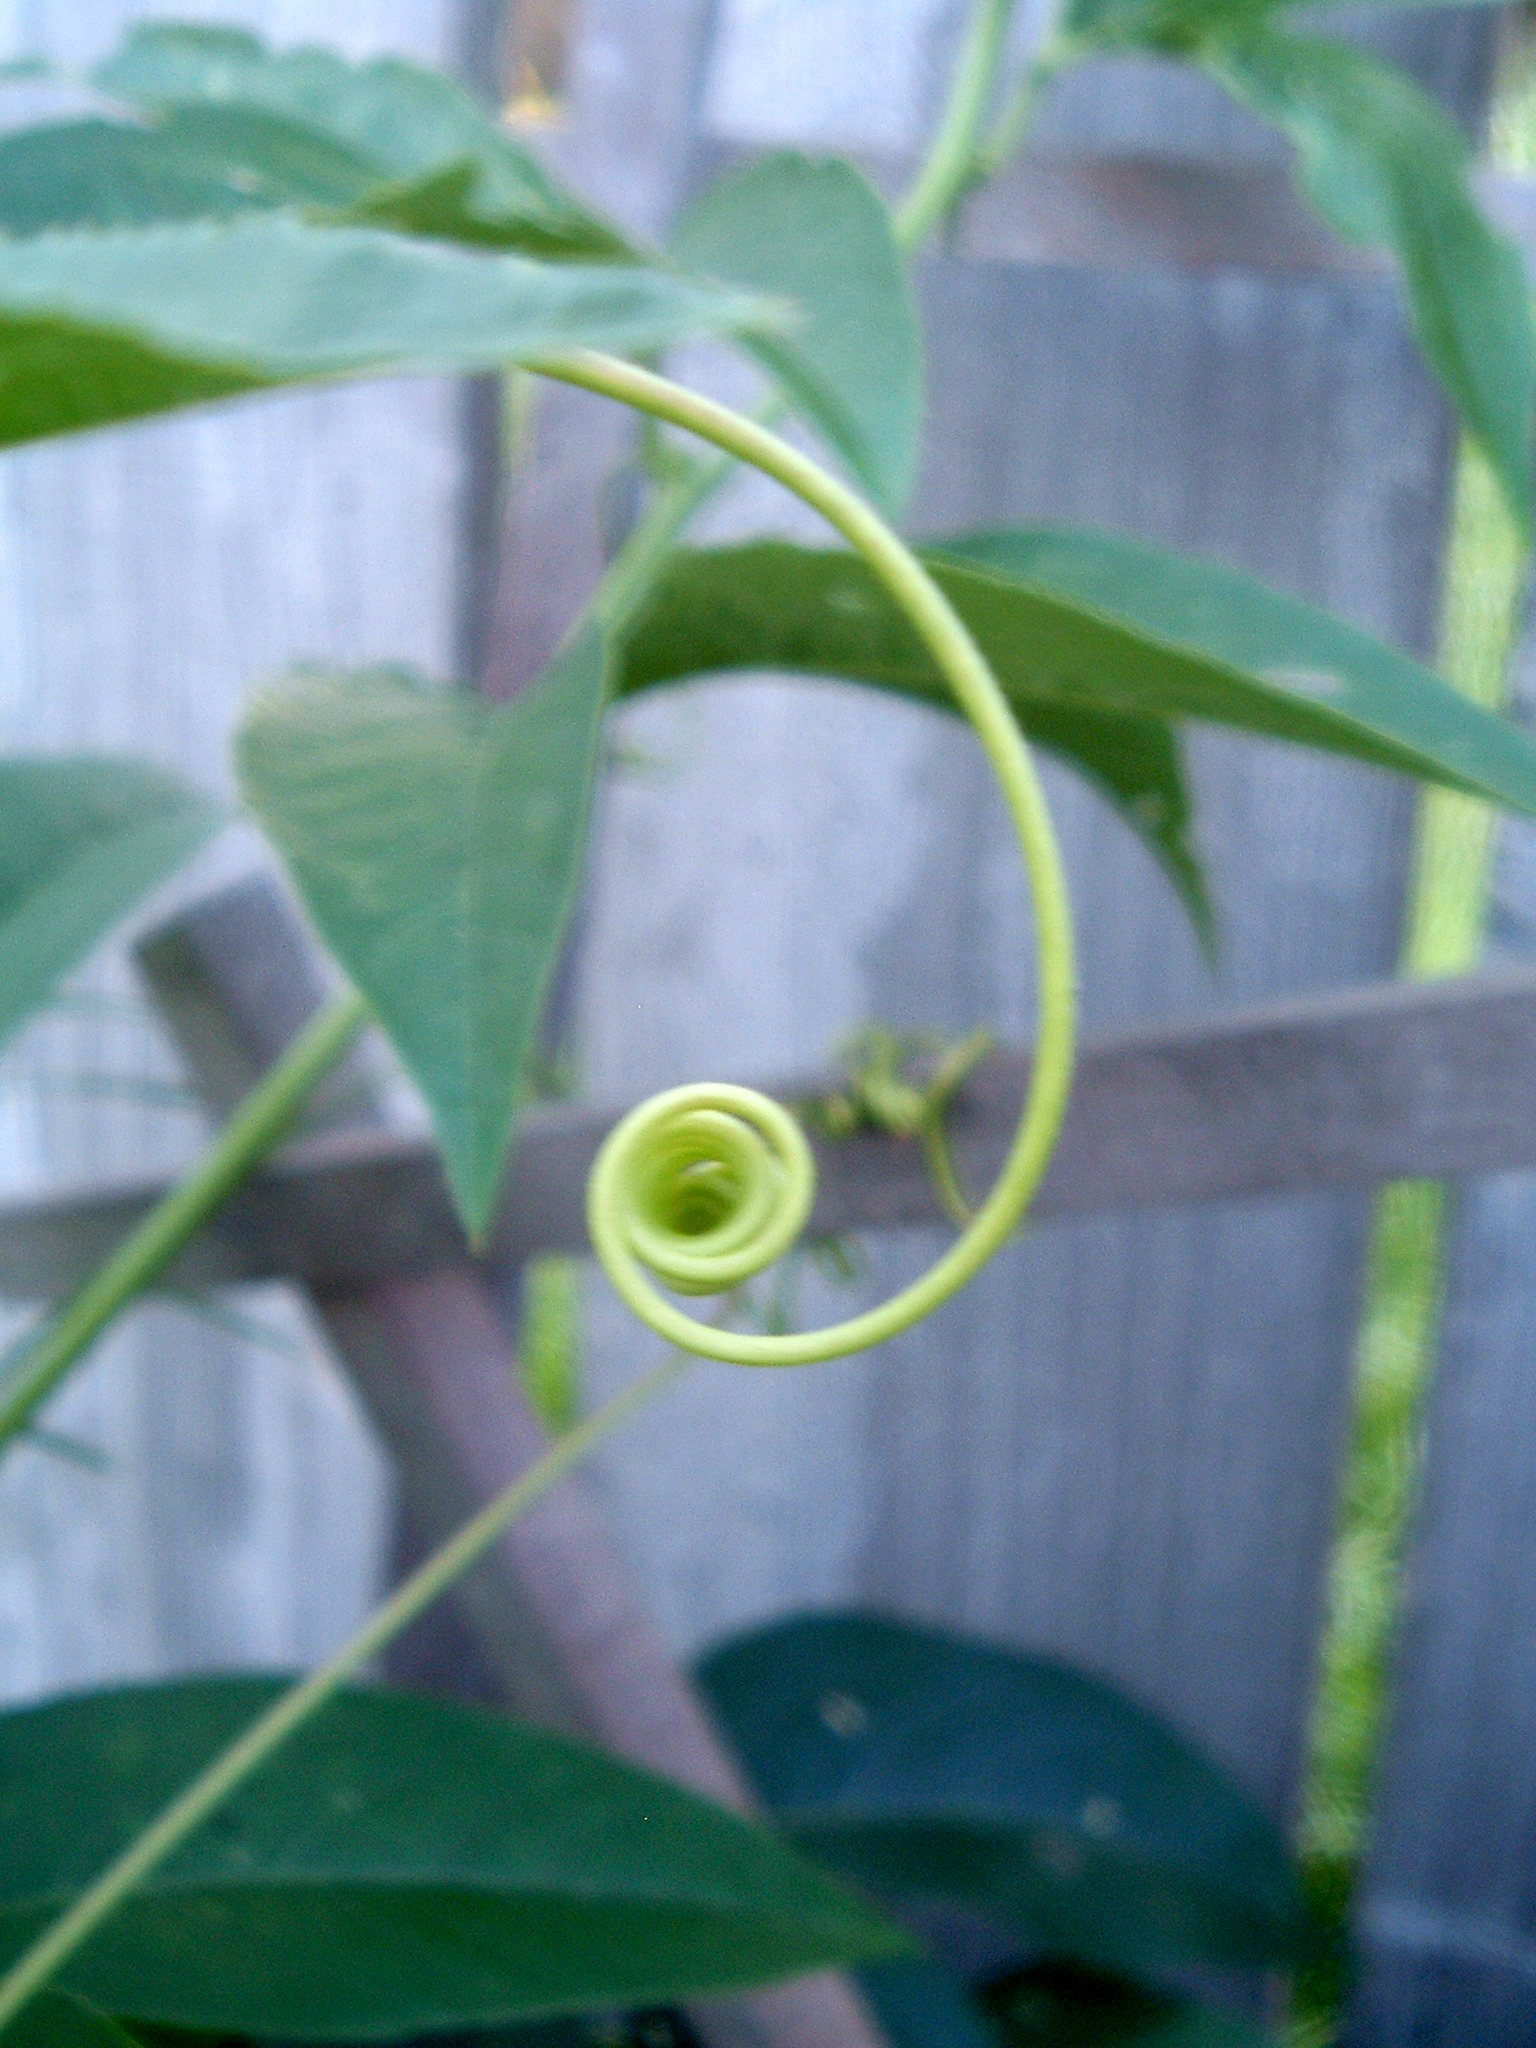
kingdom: Plantae
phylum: Tracheophyta
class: Magnoliopsida
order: Malpighiales
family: Passifloraceae
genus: Passiflora
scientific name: Passiflora incarnata
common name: Apricot-vine
